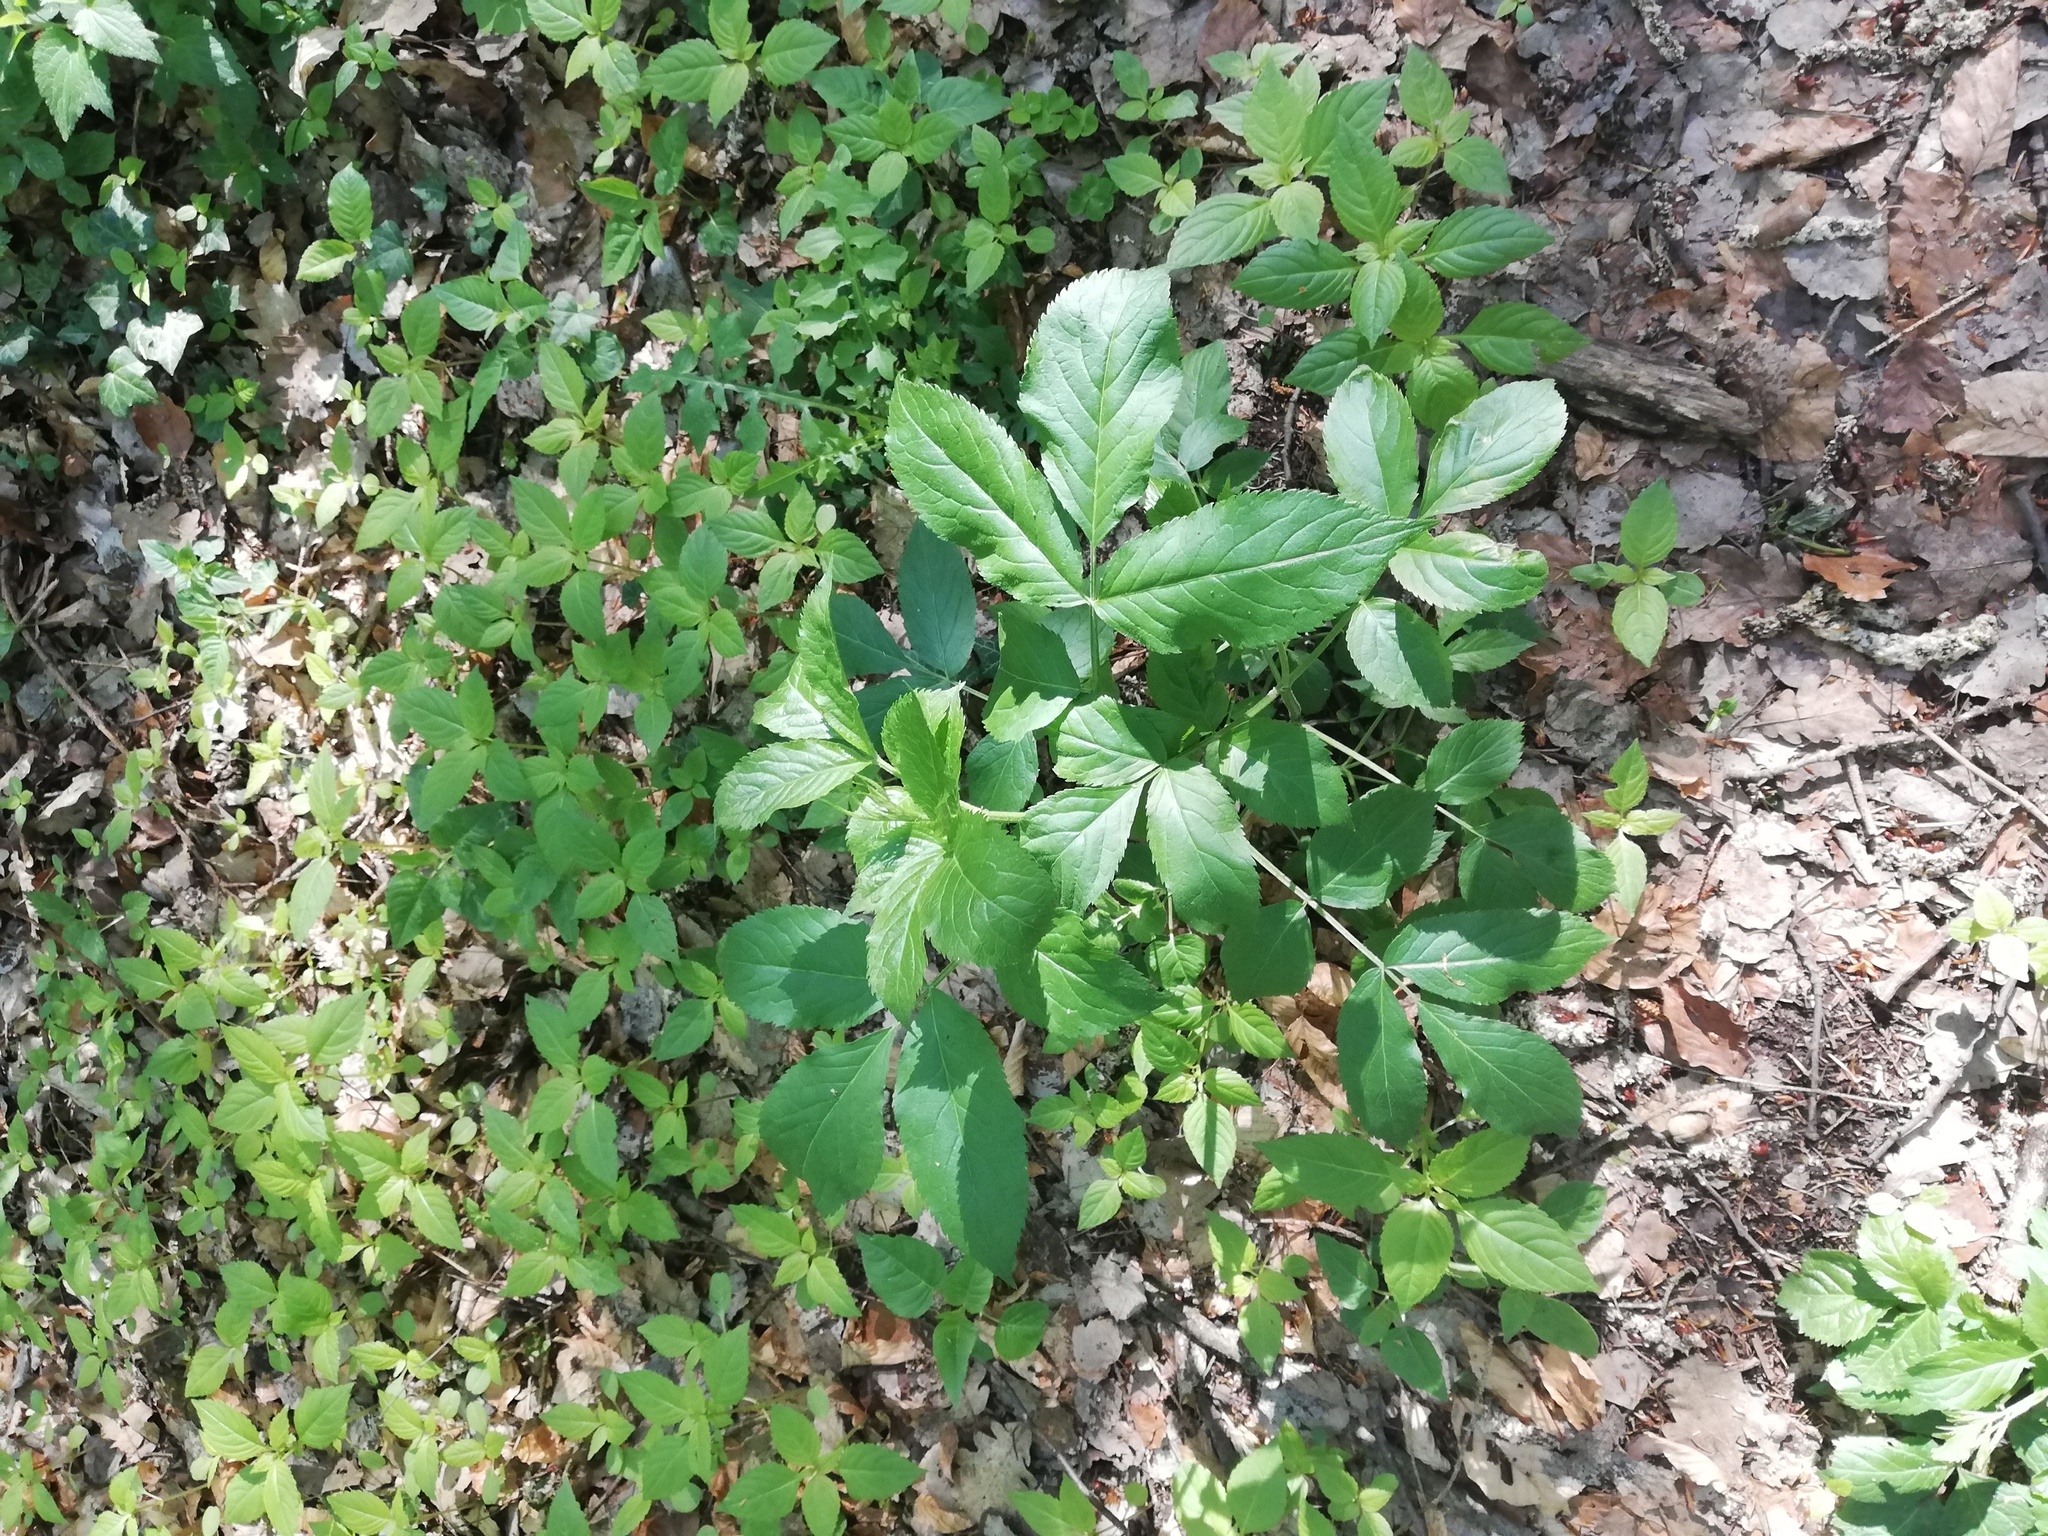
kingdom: Plantae
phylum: Tracheophyta
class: Magnoliopsida
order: Dipsacales
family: Viburnaceae
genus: Sambucus
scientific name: Sambucus nigra
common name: Elder
